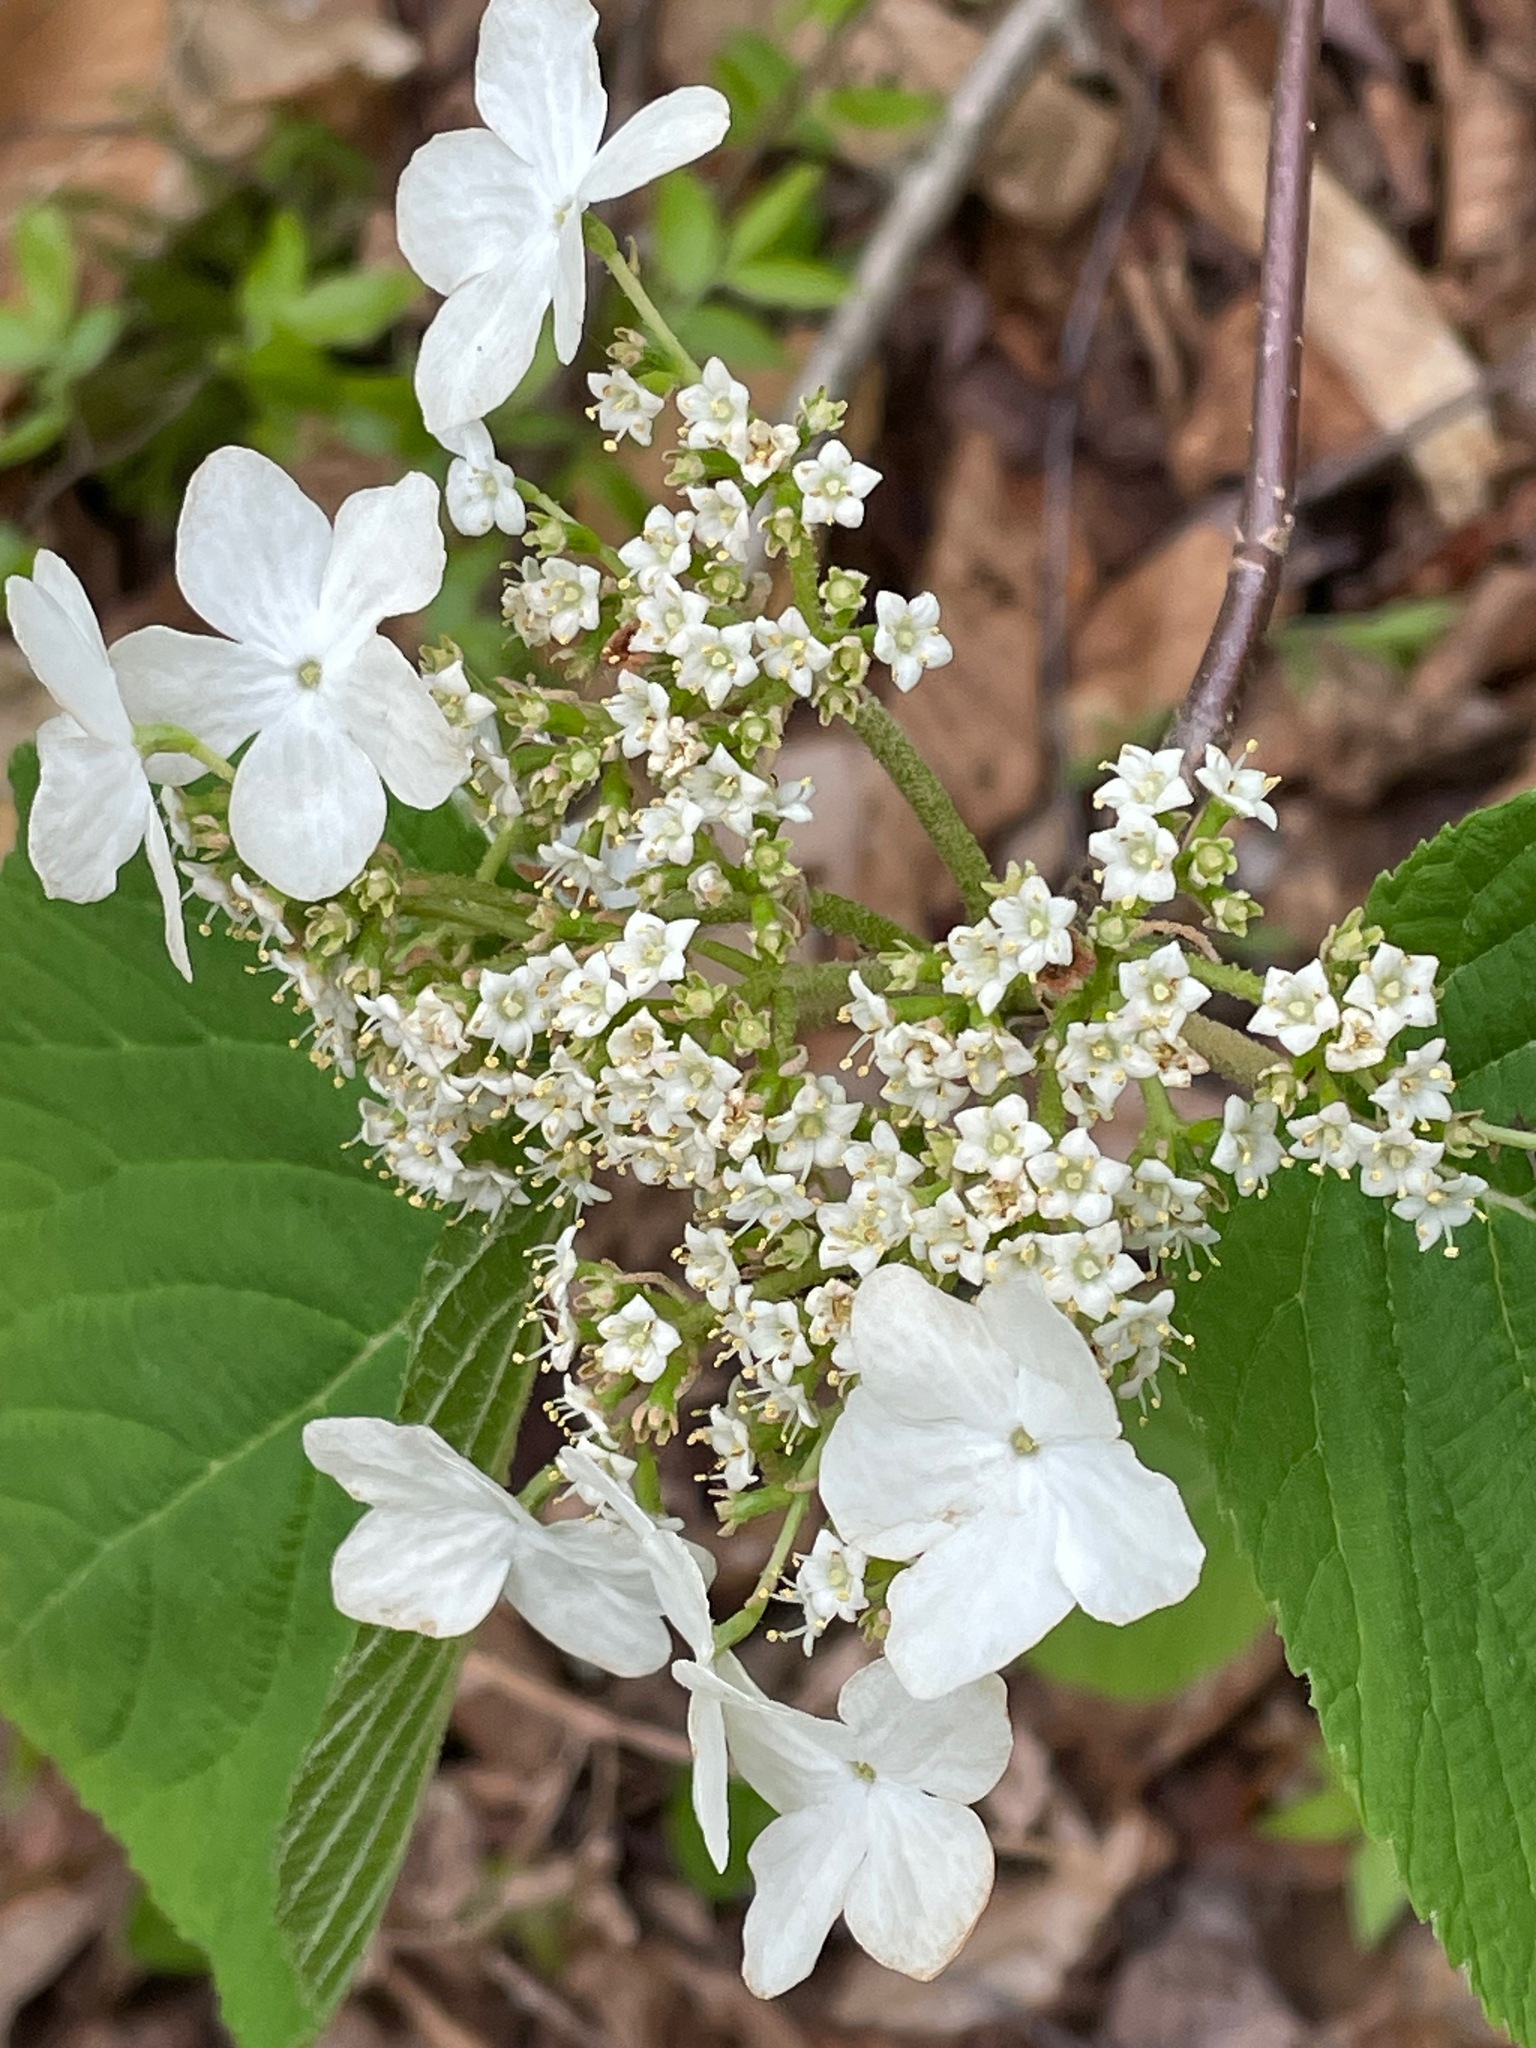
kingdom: Plantae
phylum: Tracheophyta
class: Magnoliopsida
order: Dipsacales
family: Viburnaceae
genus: Viburnum
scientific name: Viburnum lantanoides
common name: Hobblebush
